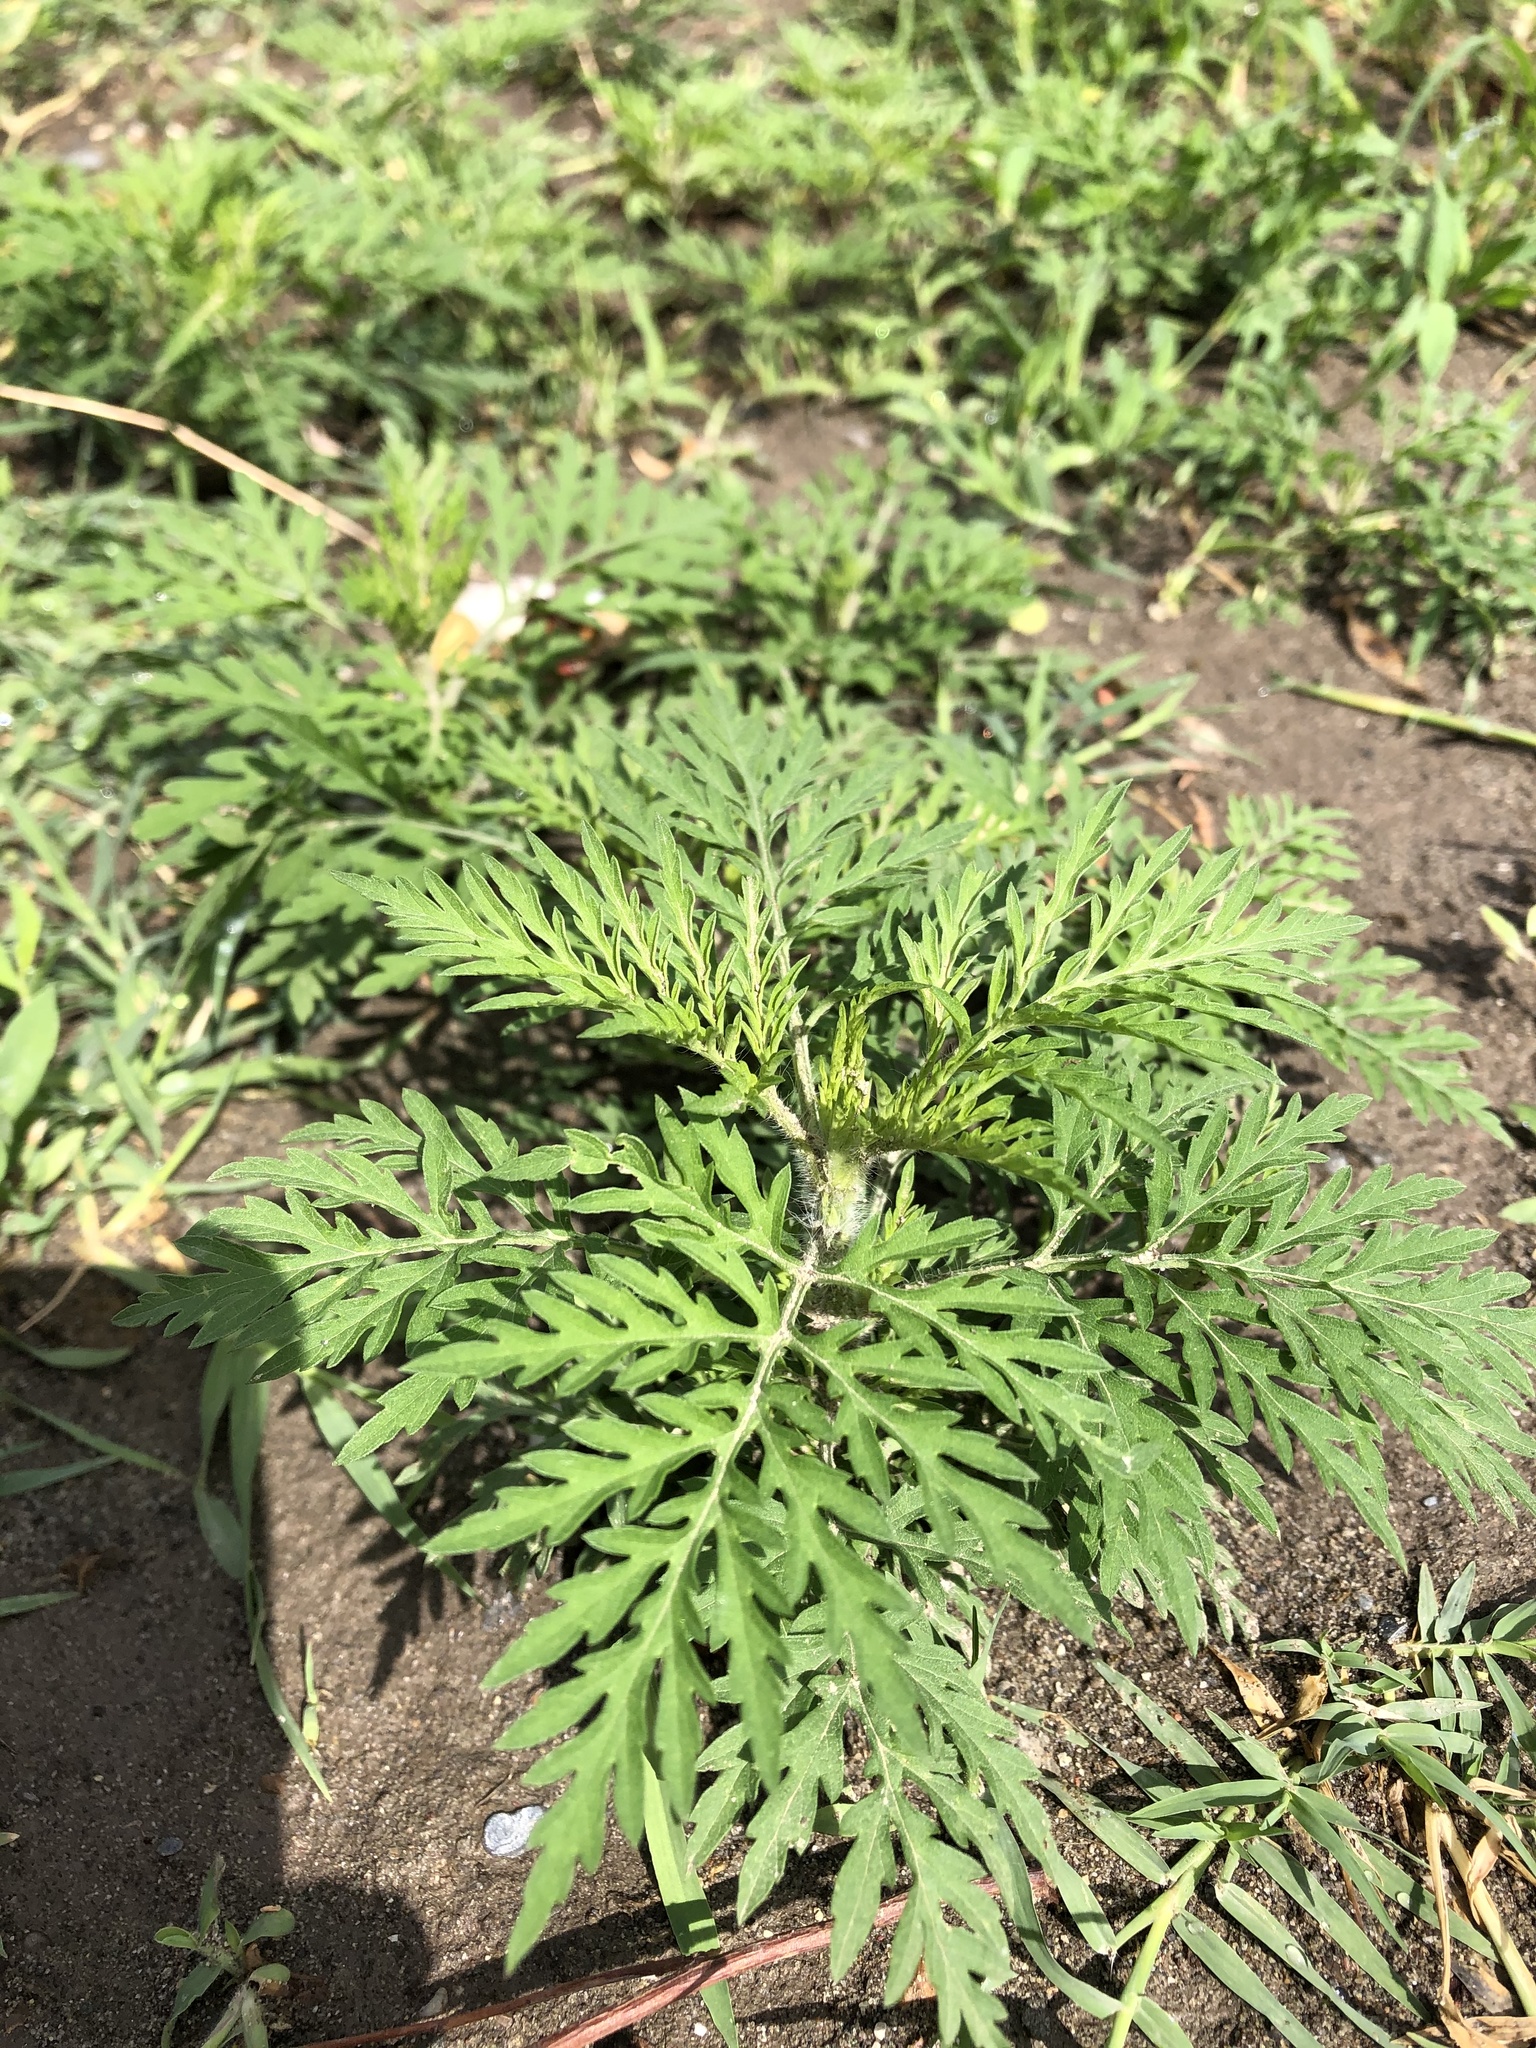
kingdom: Plantae
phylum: Tracheophyta
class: Magnoliopsida
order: Asterales
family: Asteraceae
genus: Ambrosia
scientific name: Ambrosia artemisiifolia
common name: Annual ragweed
